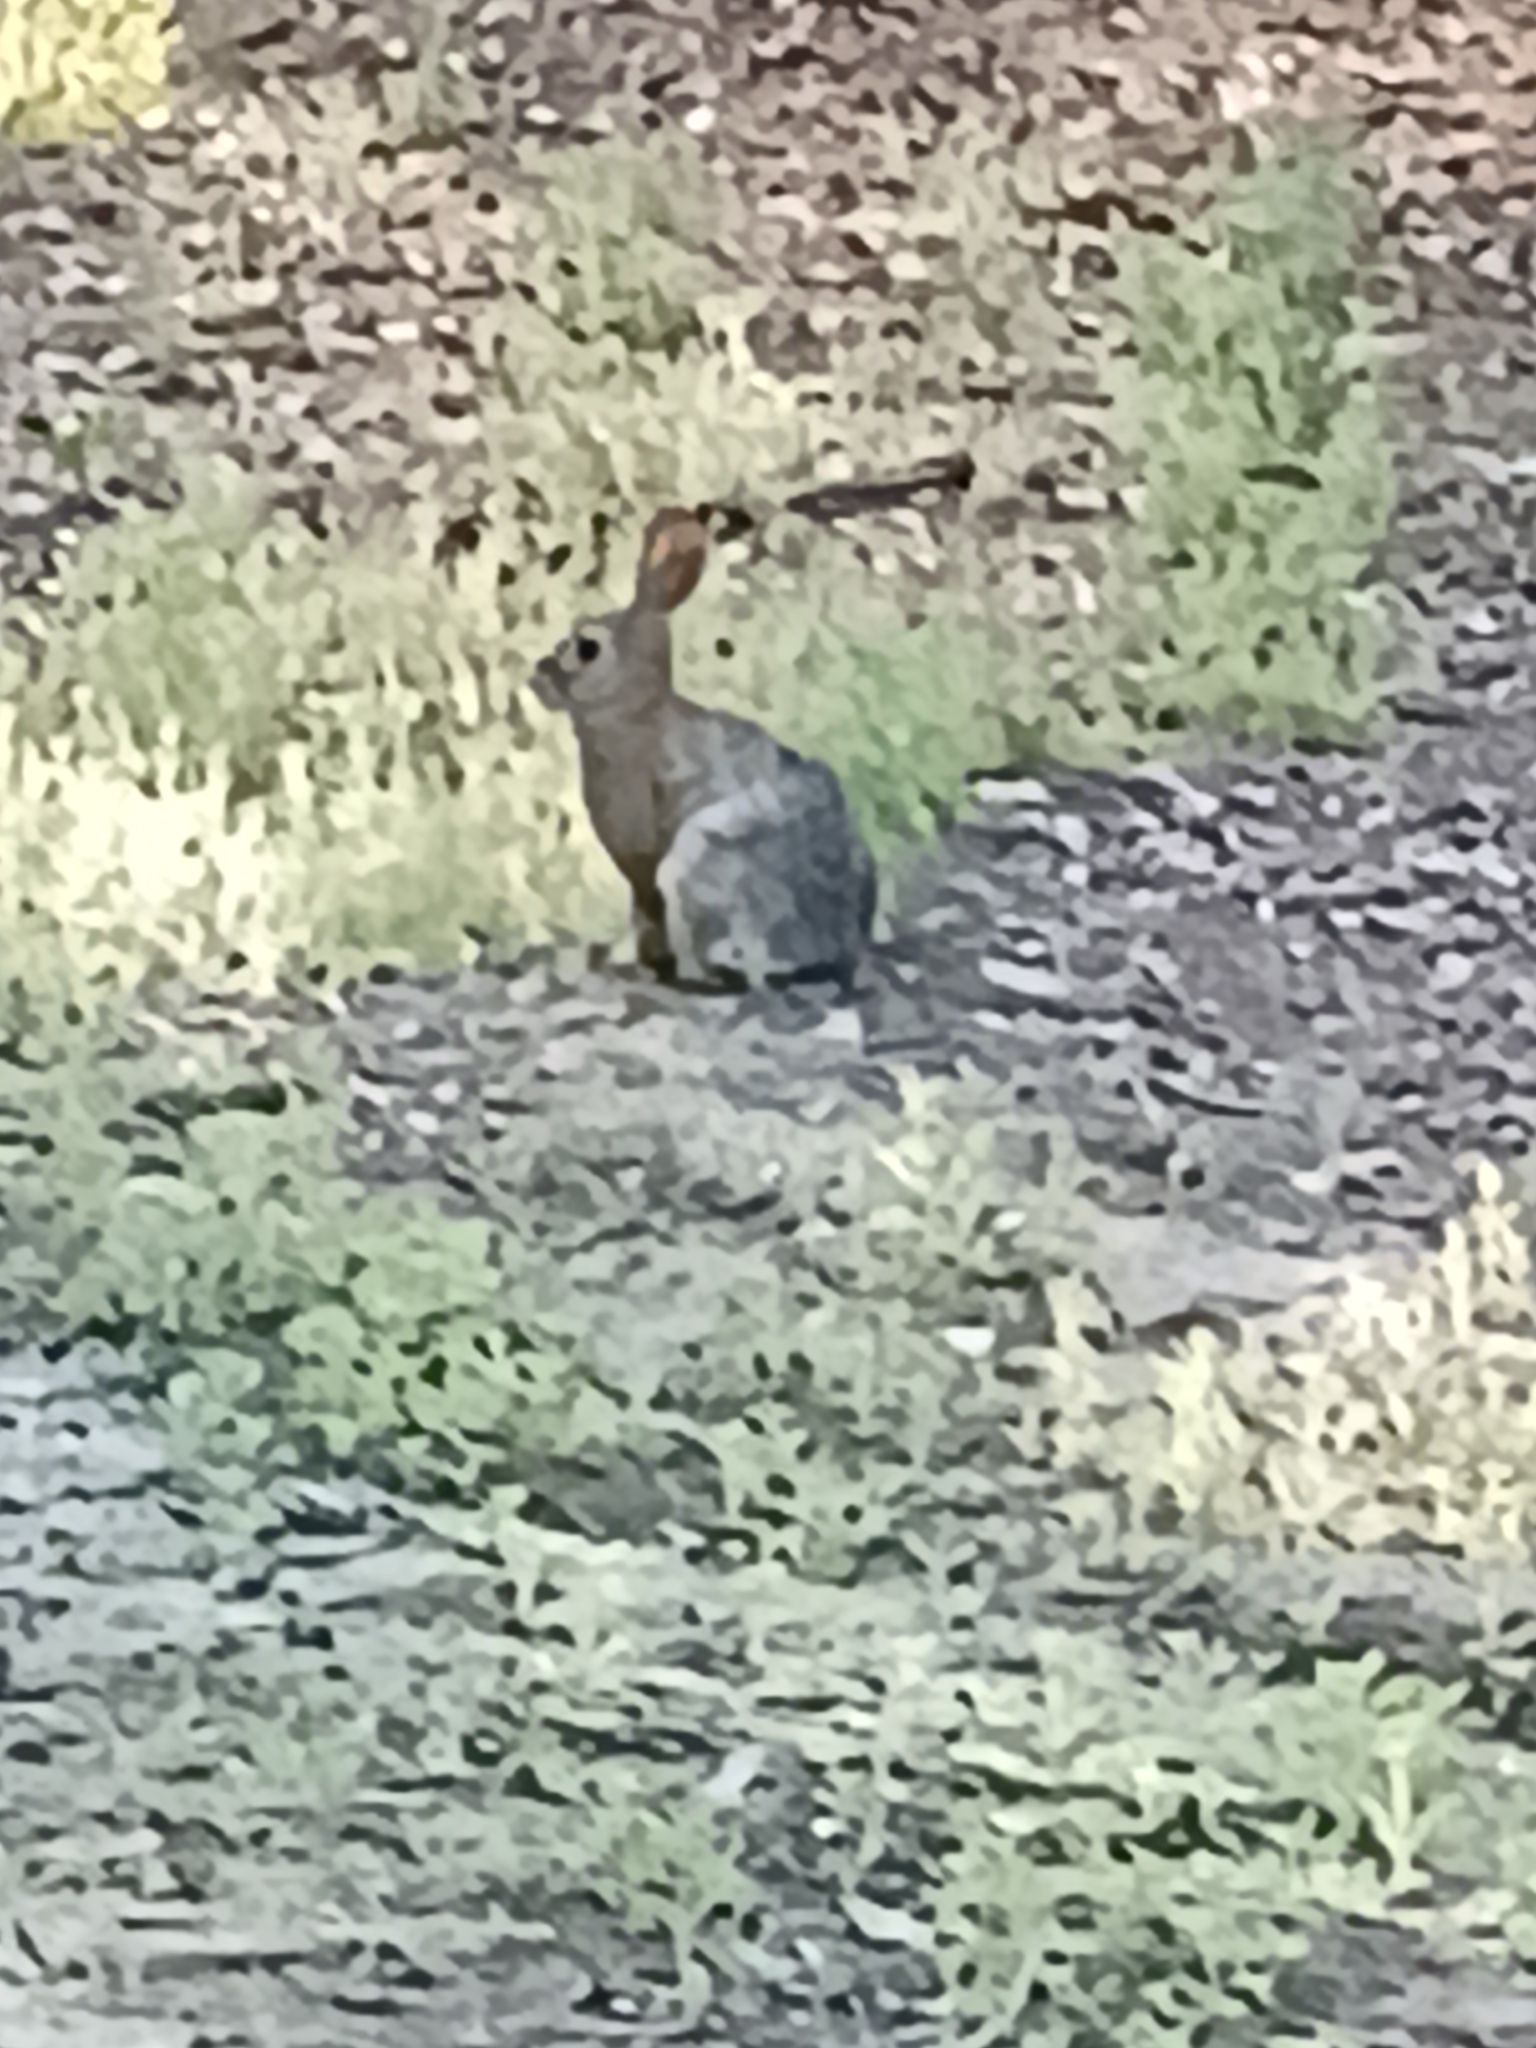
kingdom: Animalia
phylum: Chordata
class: Mammalia
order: Lagomorpha
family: Leporidae
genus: Sylvilagus
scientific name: Sylvilagus audubonii
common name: Desert cottontail
